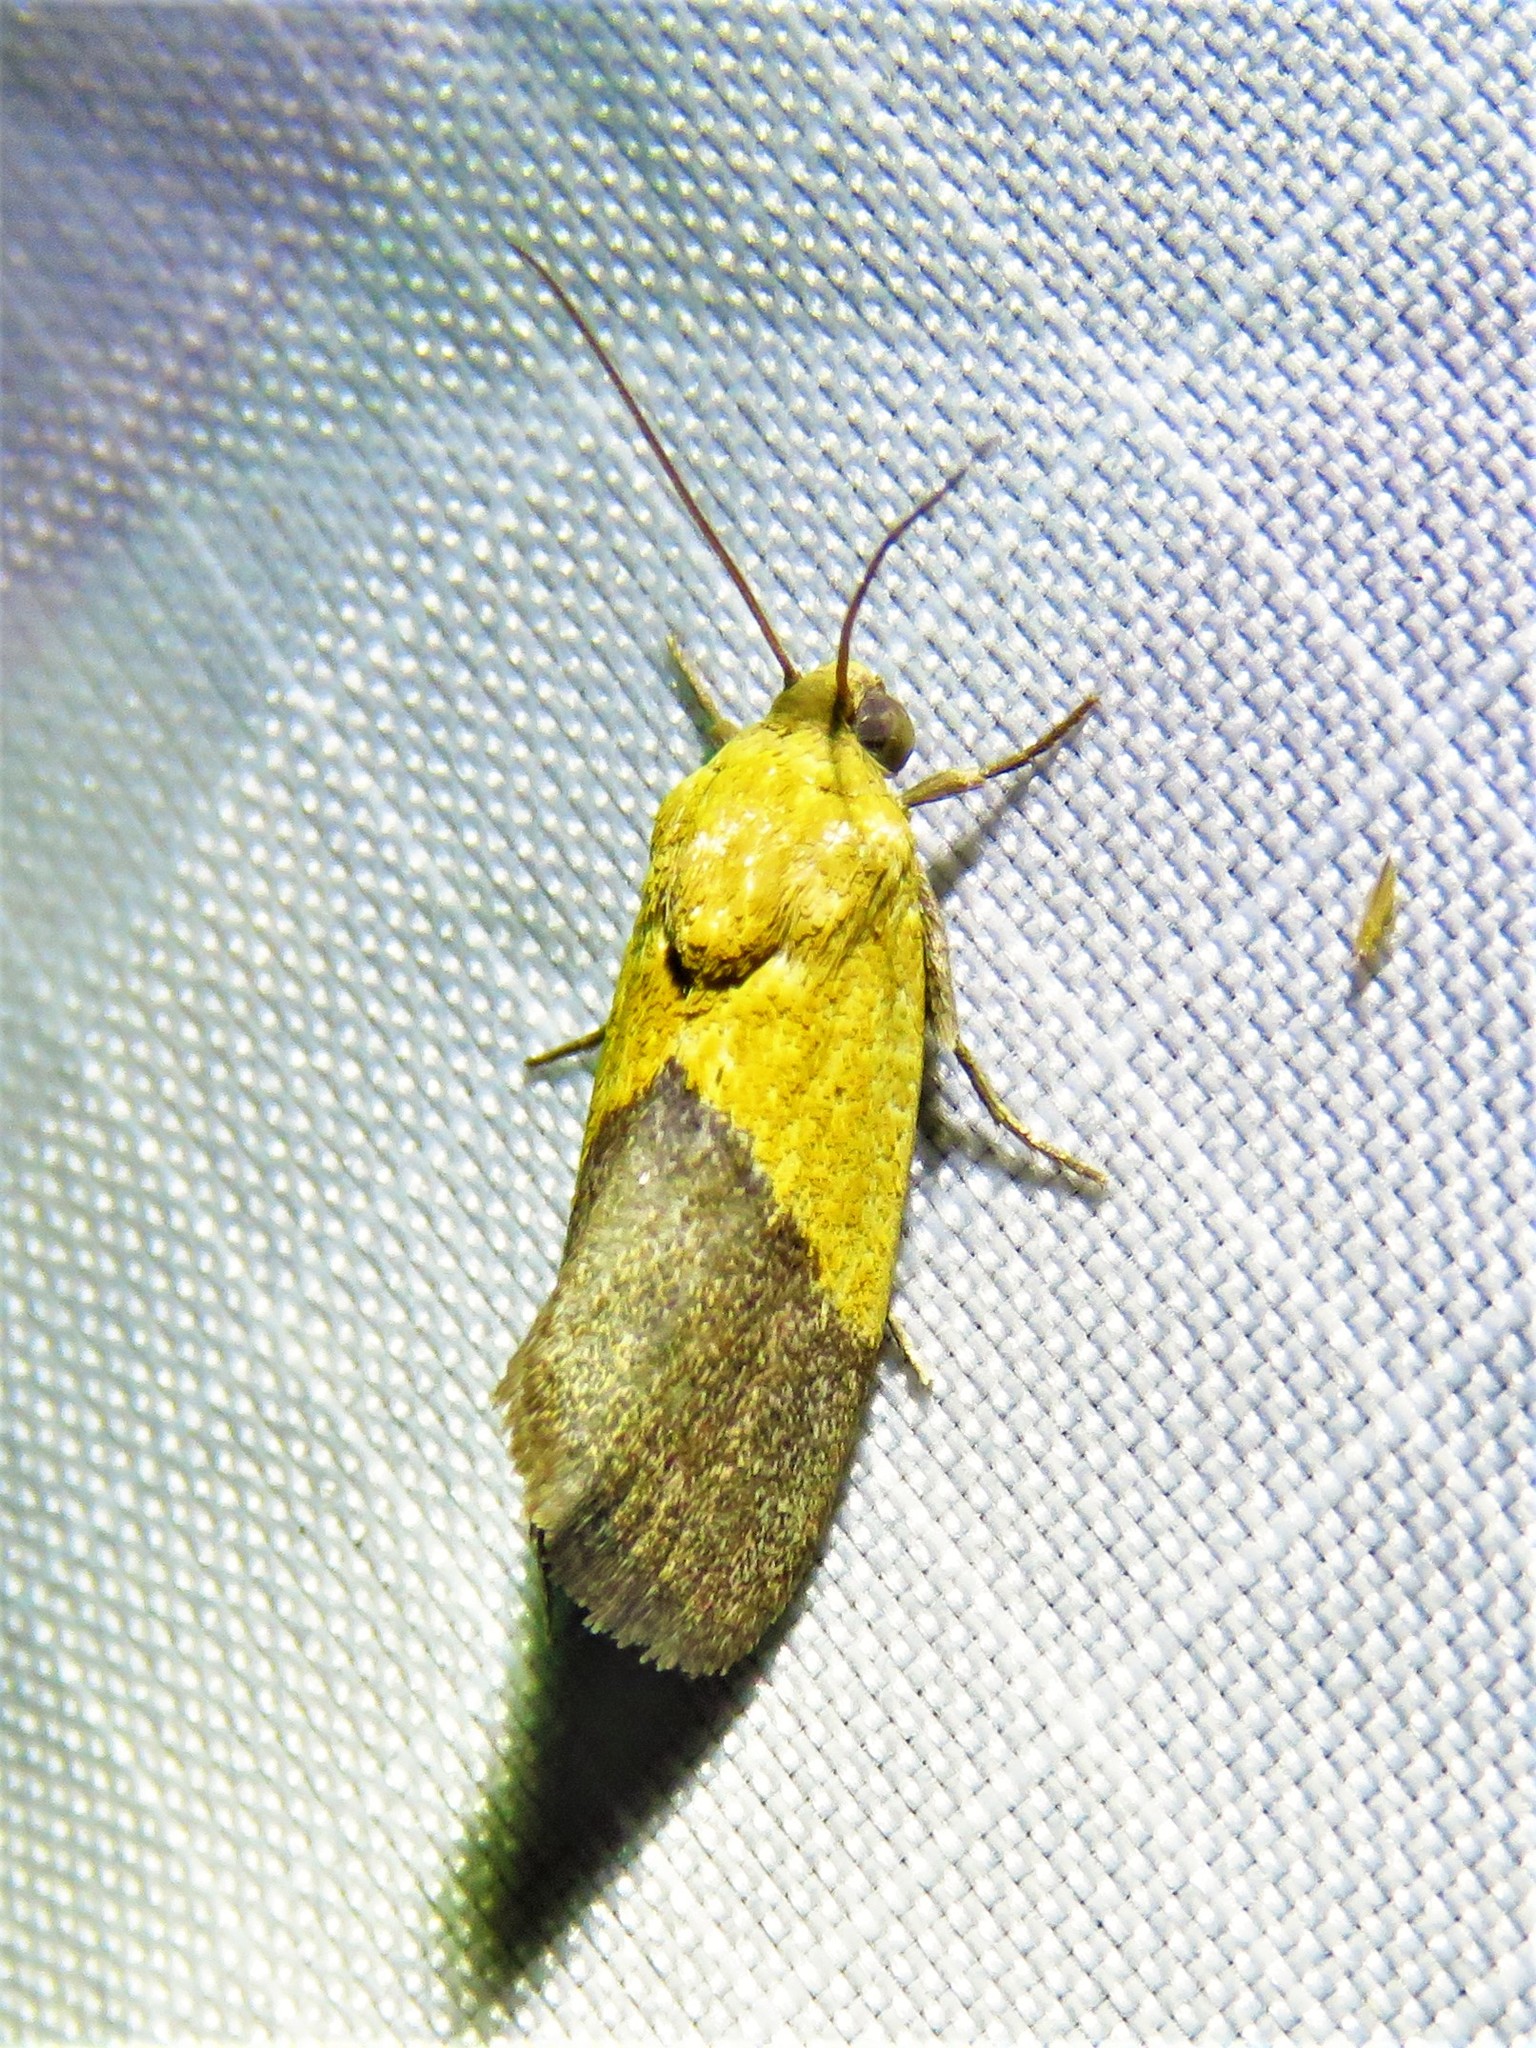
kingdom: Animalia
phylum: Arthropoda
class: Insecta
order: Lepidoptera
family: Noctuidae
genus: Acontia
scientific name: Acontia semiflava
